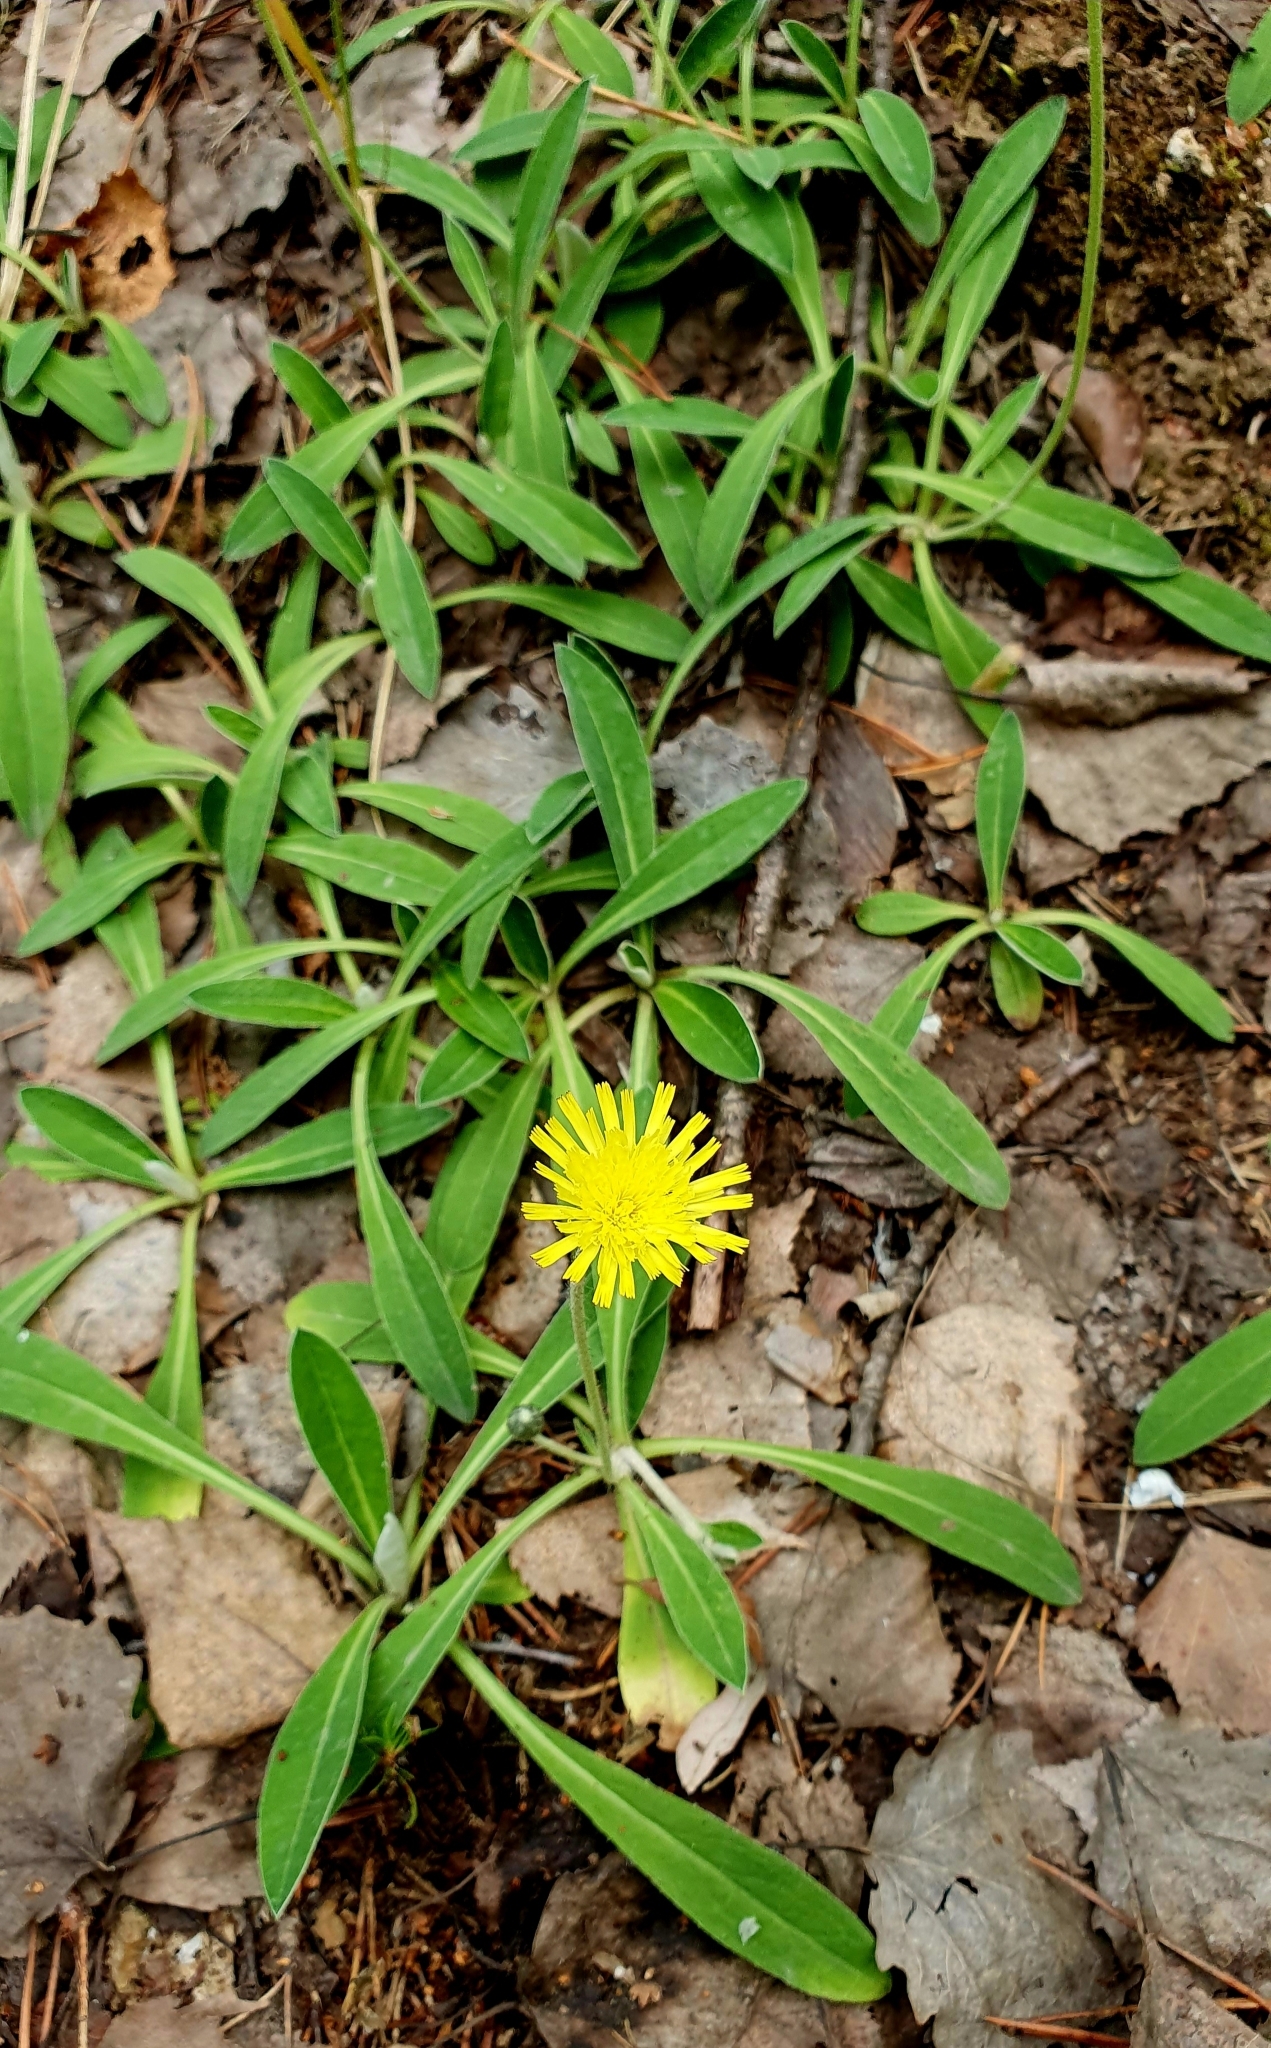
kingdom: Plantae
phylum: Tracheophyta
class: Magnoliopsida
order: Asterales
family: Asteraceae
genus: Pilosella
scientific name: Pilosella officinarum
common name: Mouse-ear hawkweed
